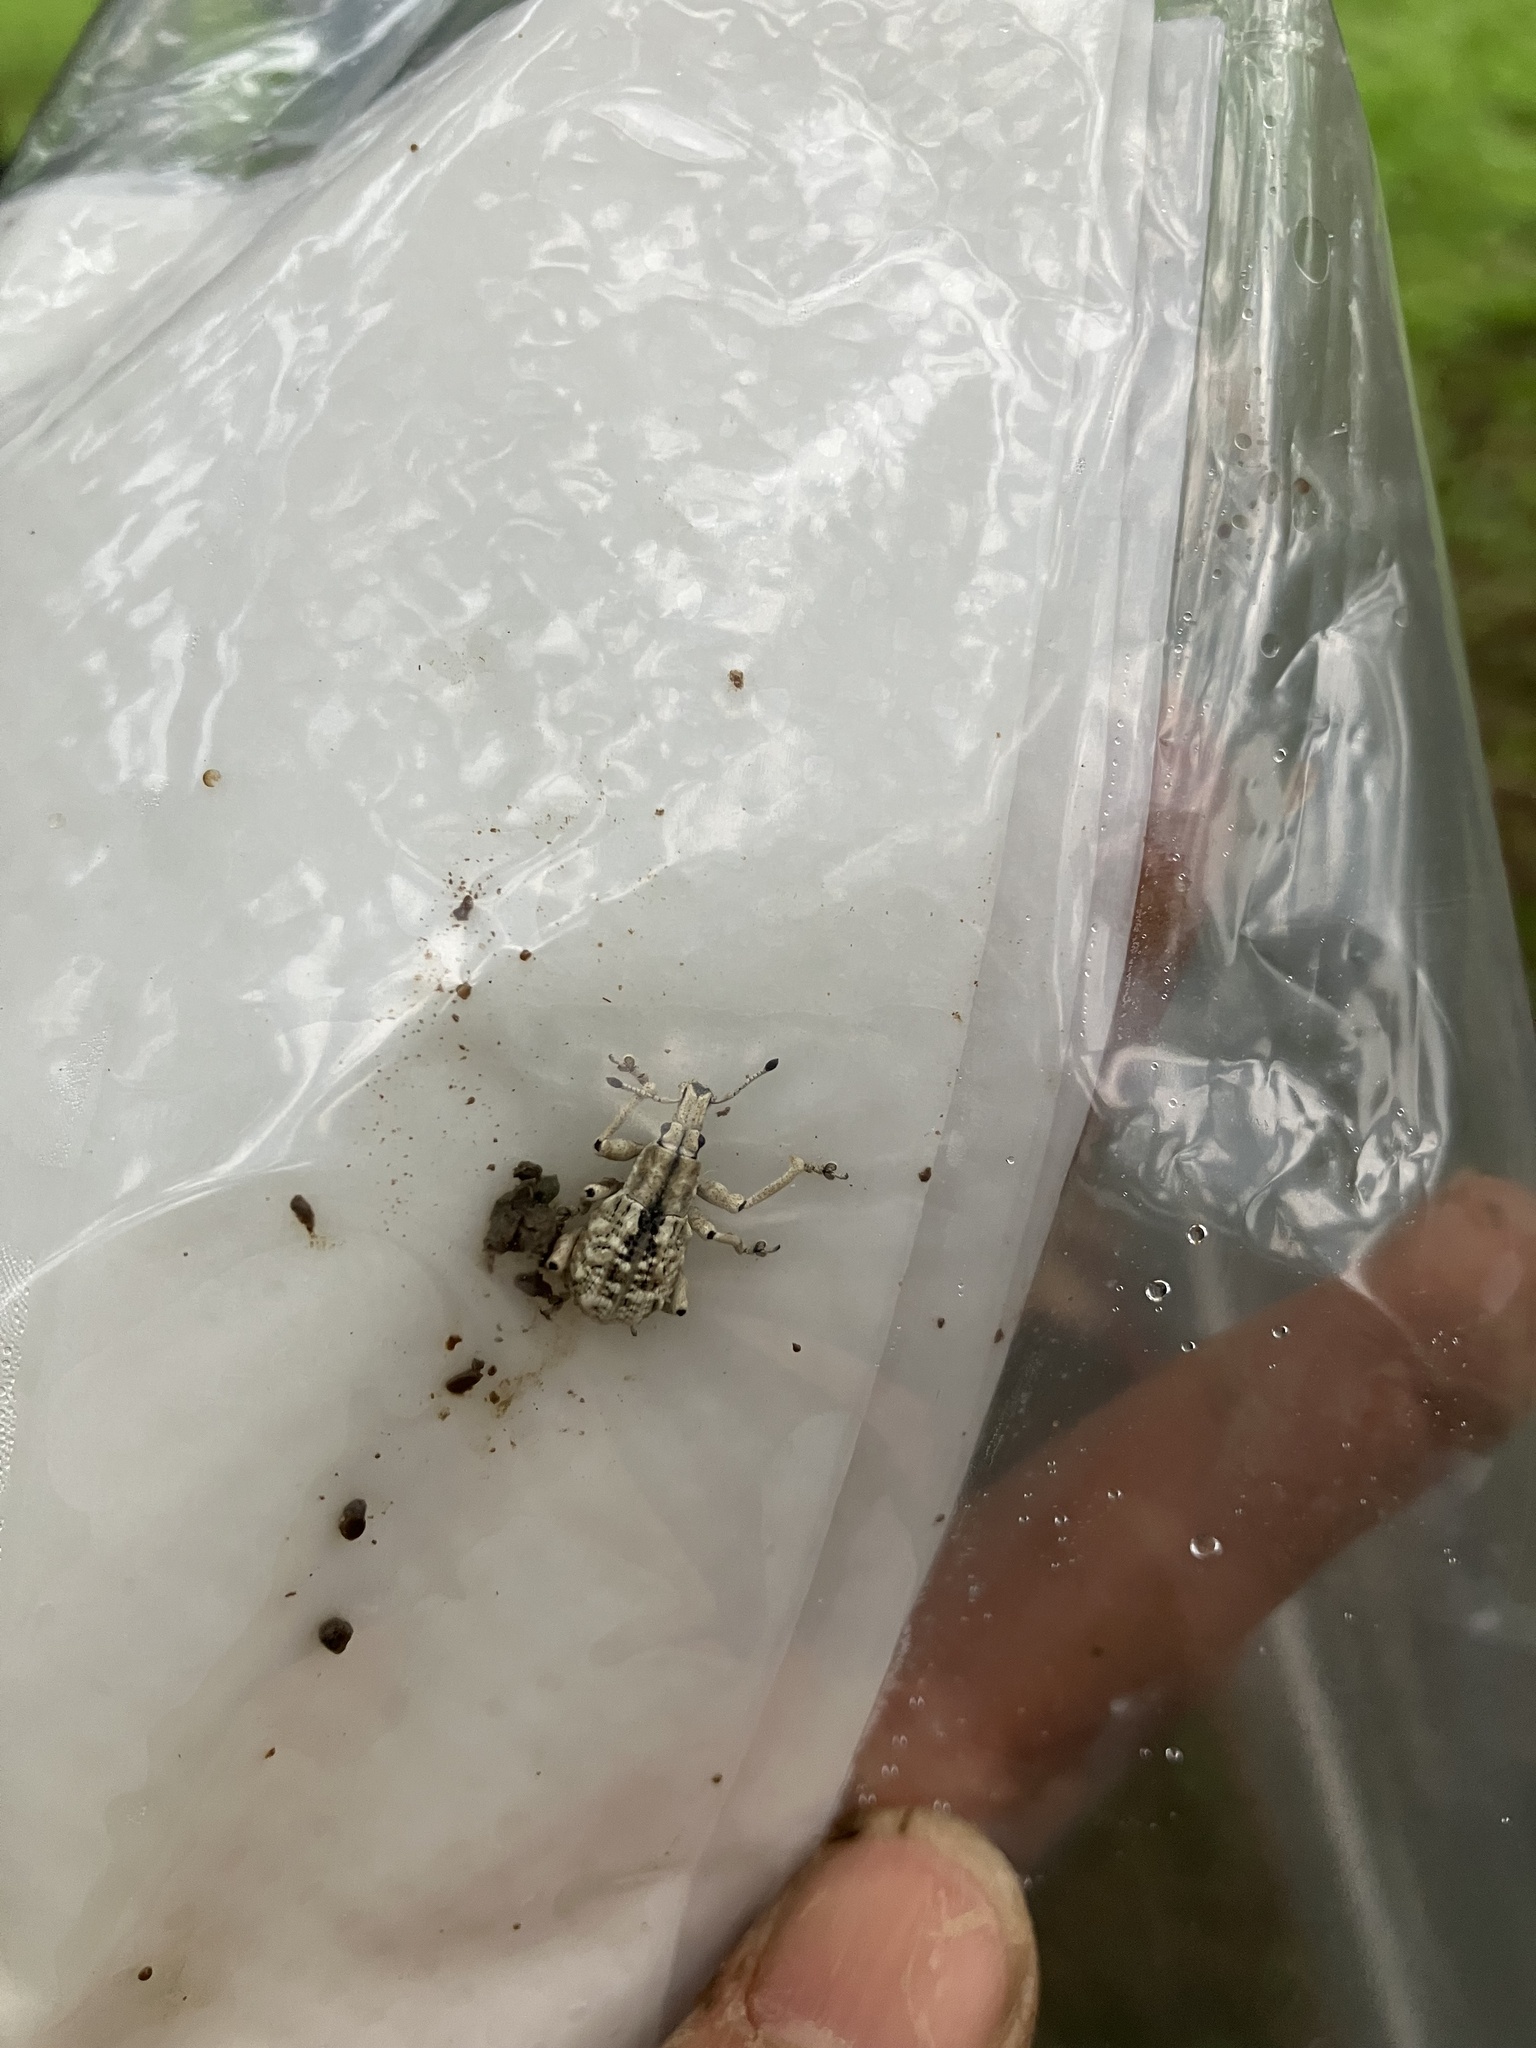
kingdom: Animalia
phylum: Arthropoda
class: Insecta
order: Coleoptera
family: Curculionidae
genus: Dermatoxenus
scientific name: Dermatoxenus caesicollis
